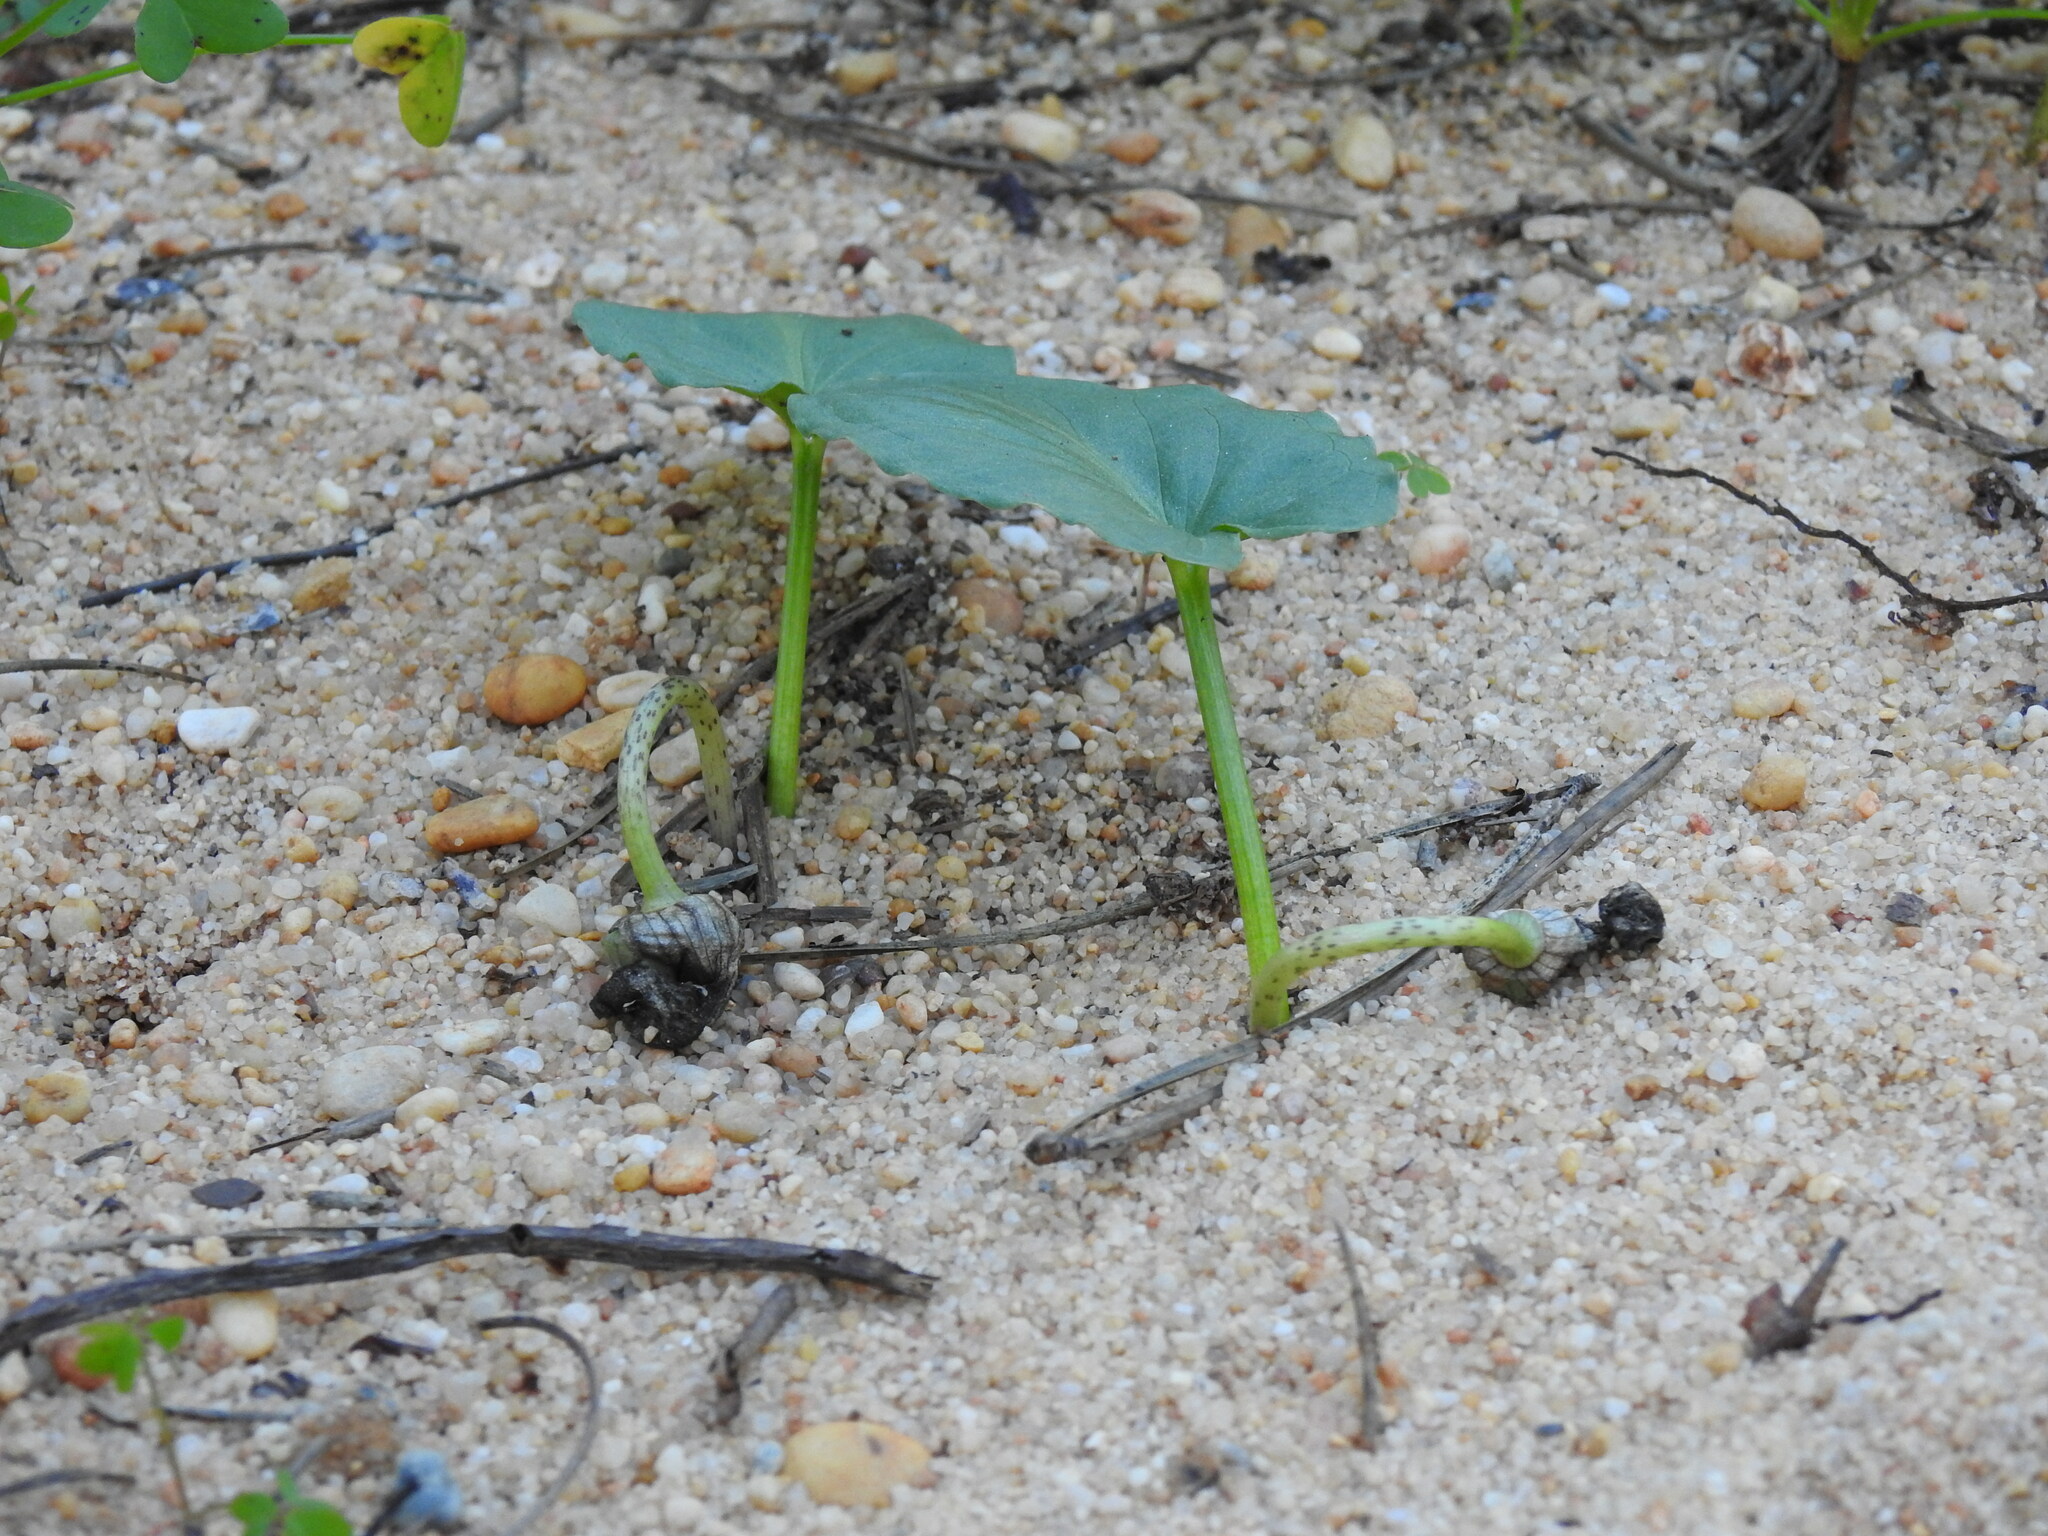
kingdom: Plantae
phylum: Tracheophyta
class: Liliopsida
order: Alismatales
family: Araceae
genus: Arisarum
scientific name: Arisarum simorrhinum
